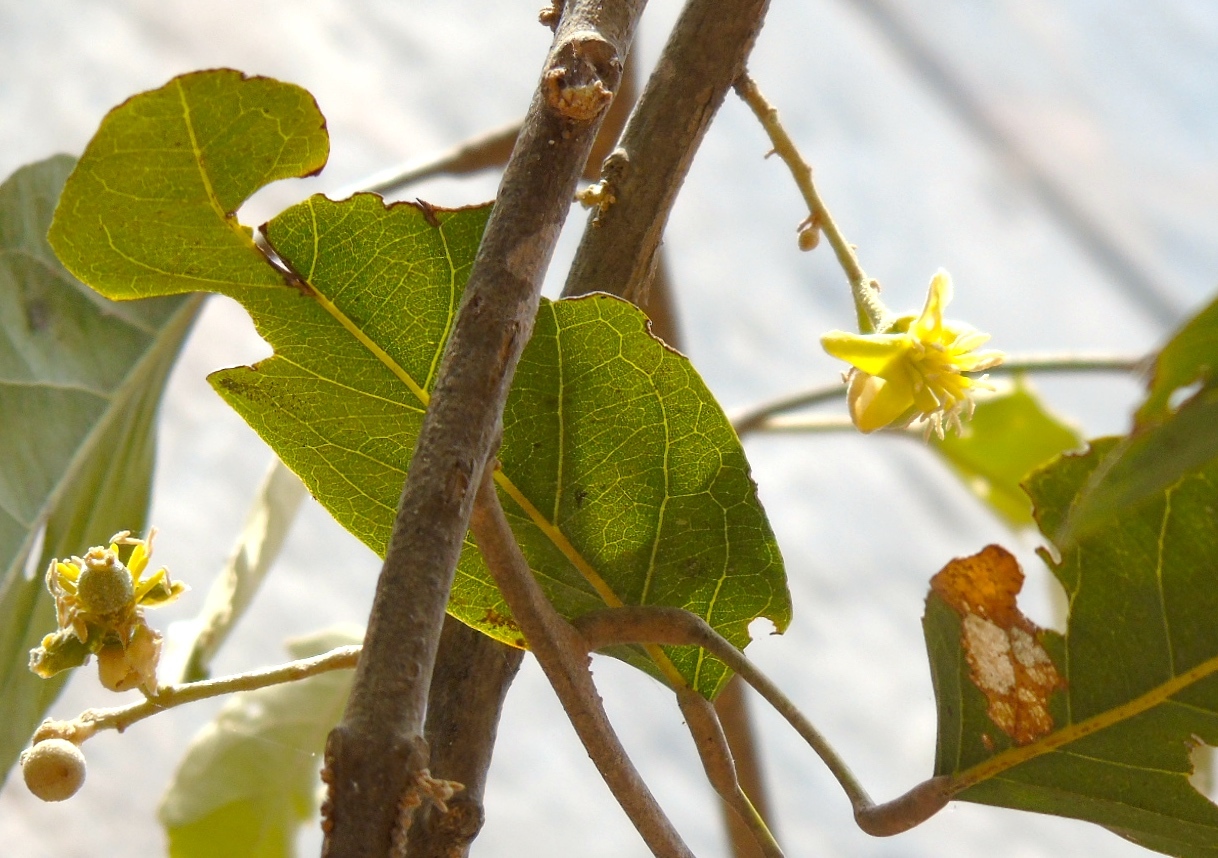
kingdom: Plantae
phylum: Tracheophyta
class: Magnoliopsida
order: Brassicales
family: Capparaceae
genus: Morisonia
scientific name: Morisonia americana
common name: Wild mesple
